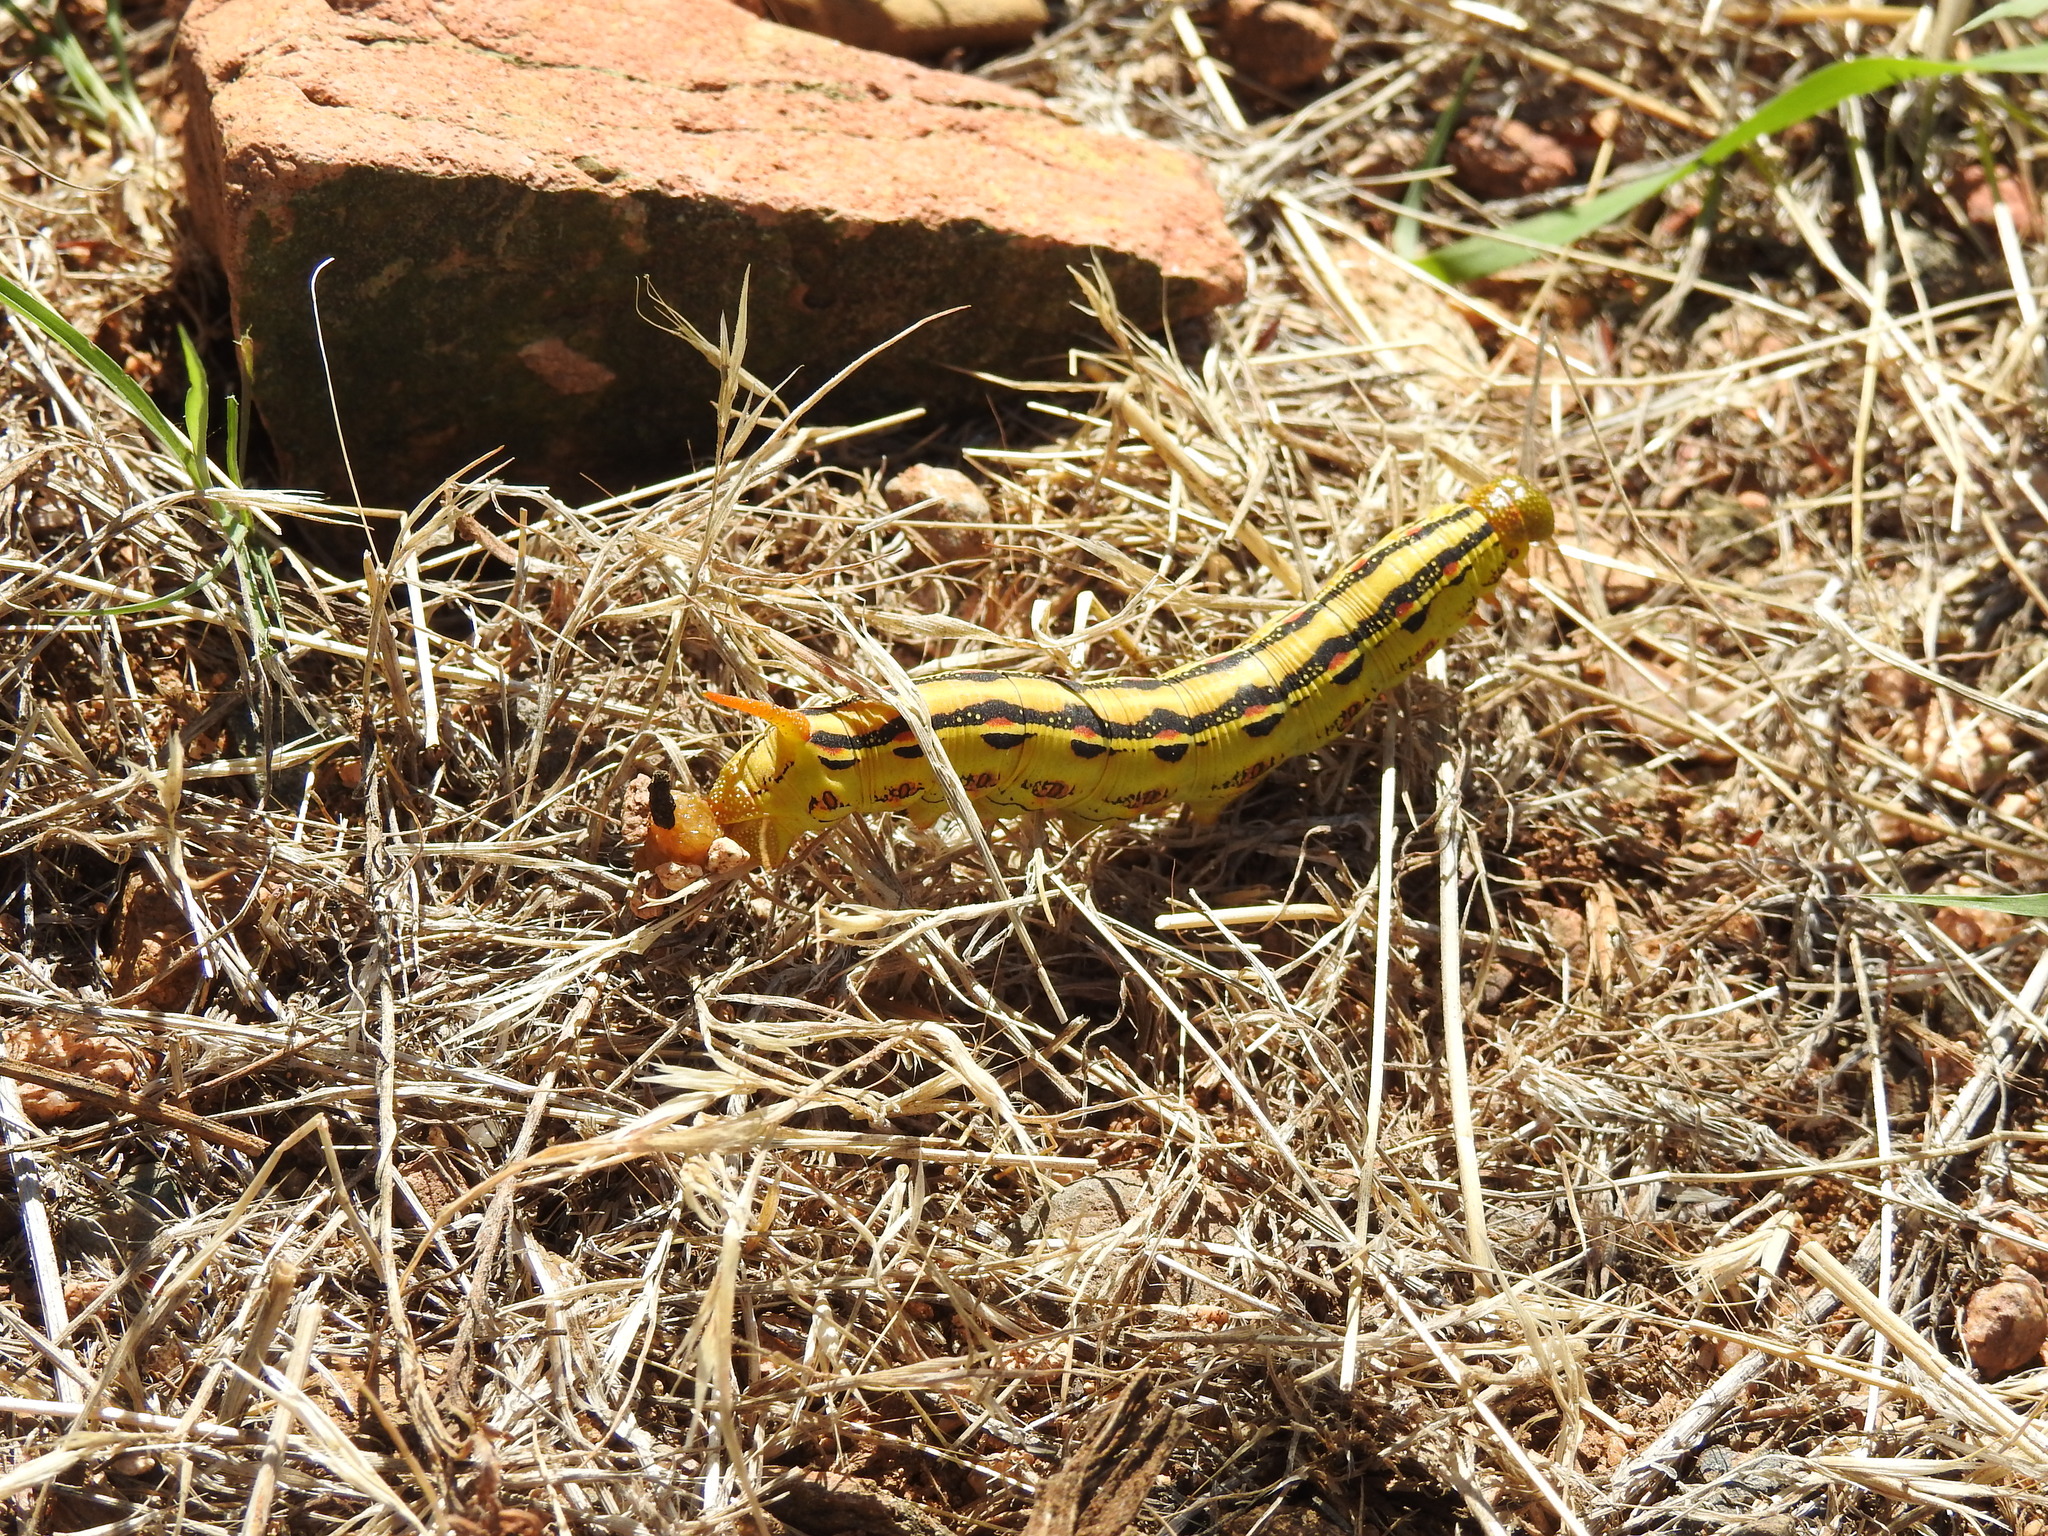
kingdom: Animalia
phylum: Arthropoda
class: Insecta
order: Lepidoptera
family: Sphingidae
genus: Hyles
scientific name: Hyles lineata
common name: White-lined sphinx
